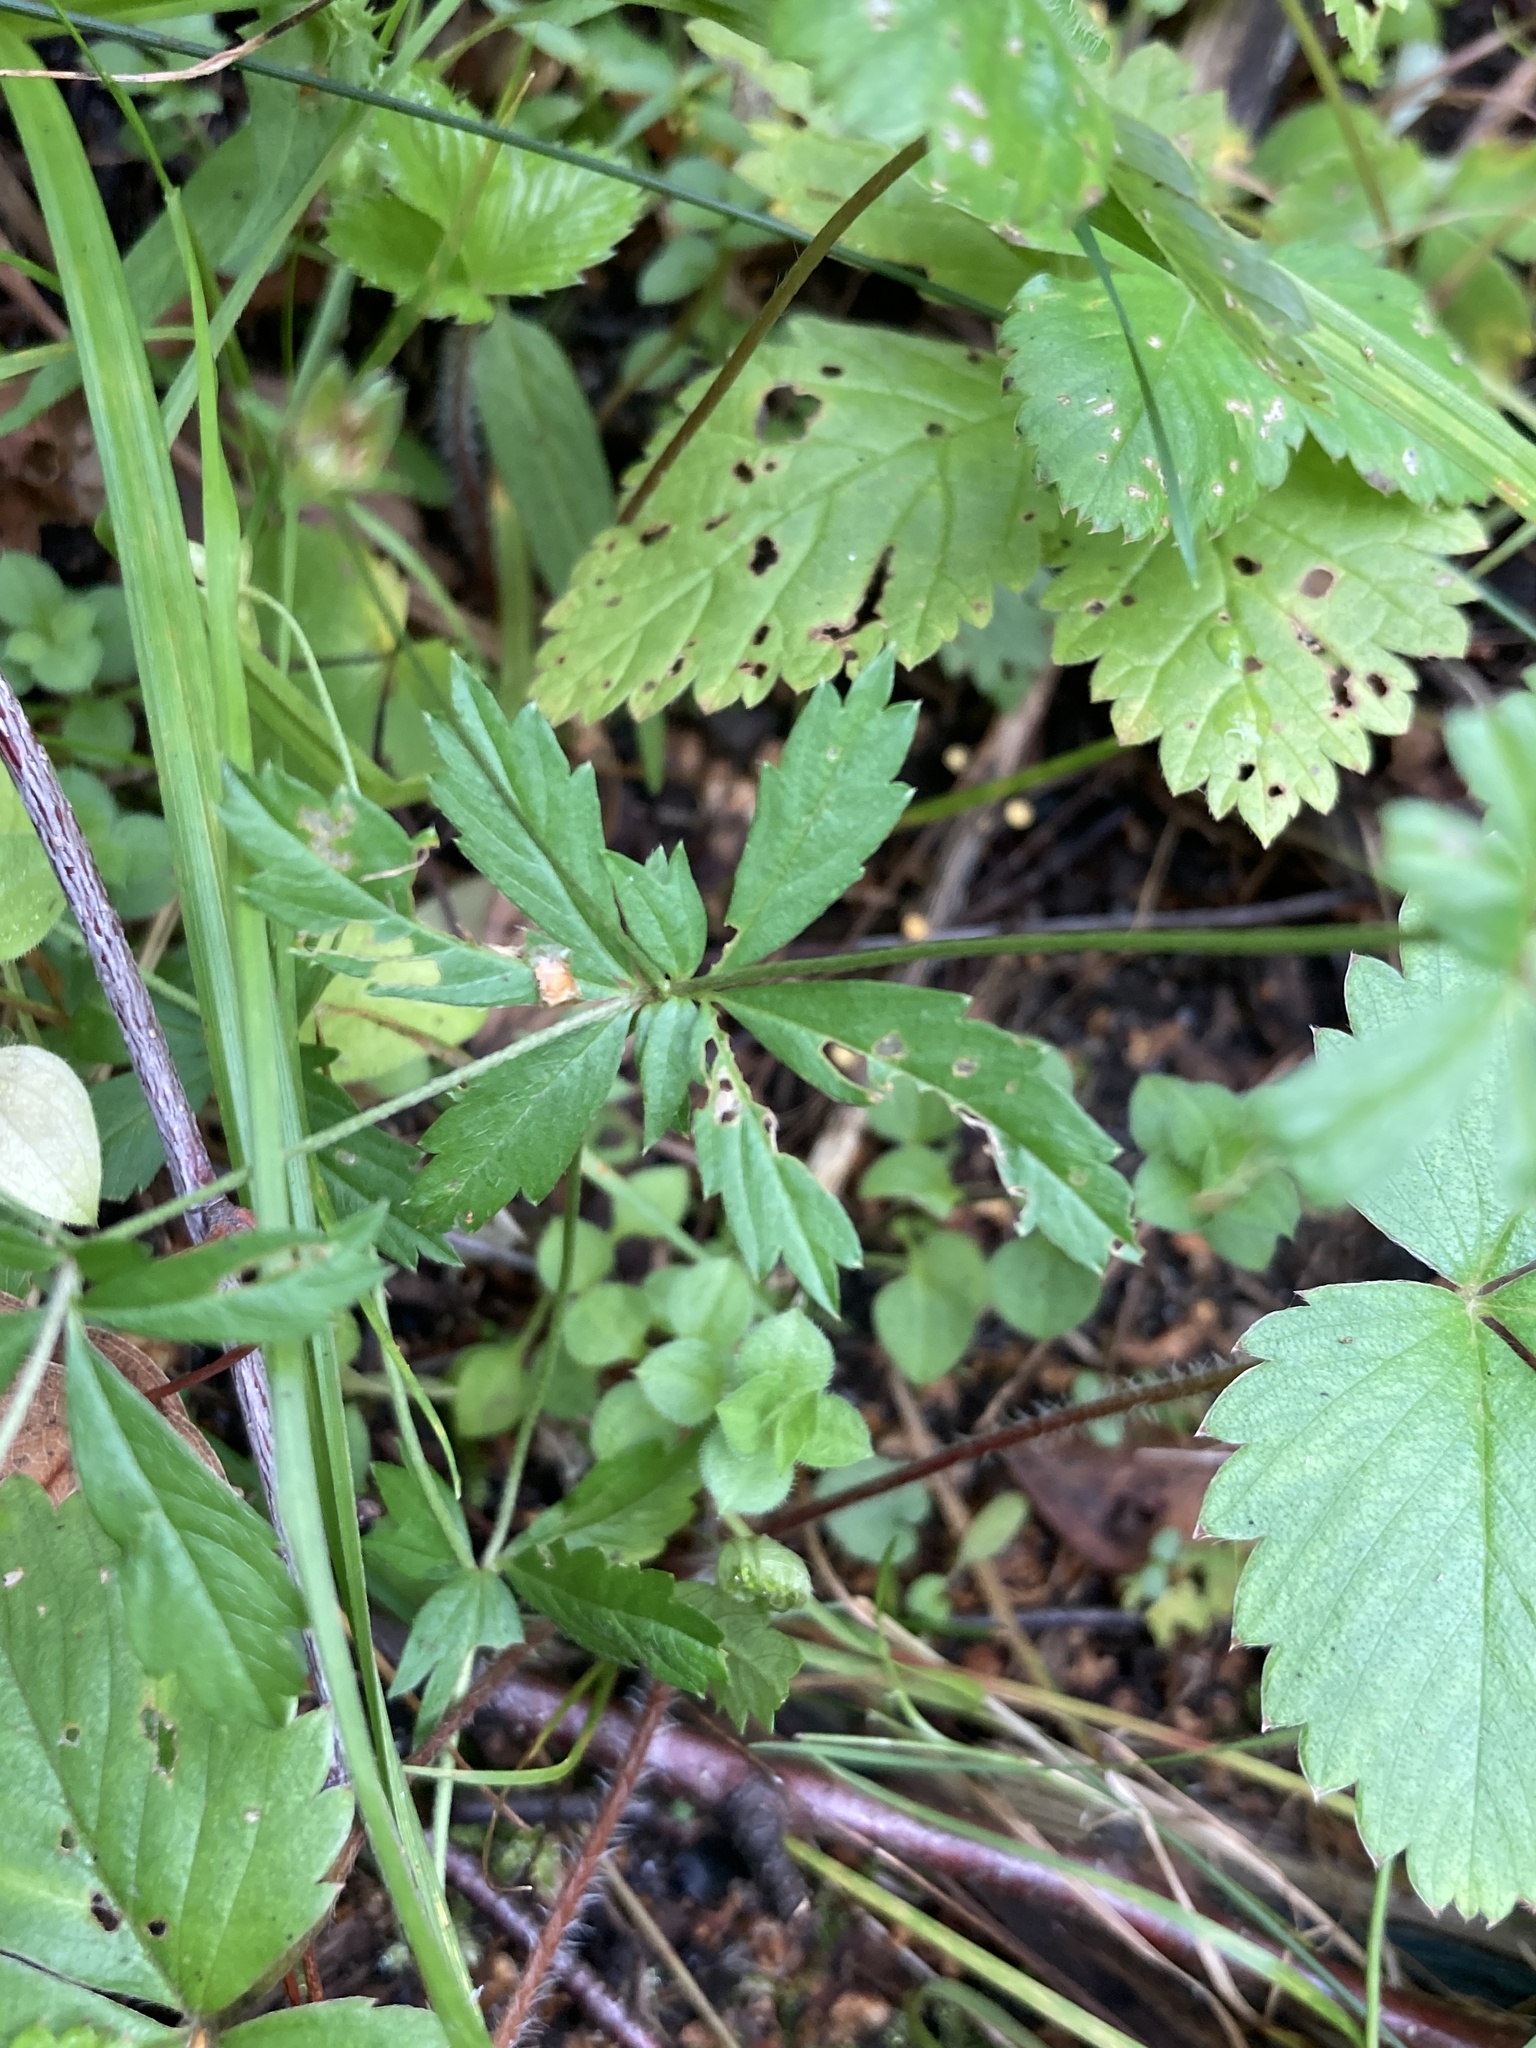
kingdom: Plantae
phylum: Tracheophyta
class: Magnoliopsida
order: Rosales
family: Rosaceae
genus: Potentilla
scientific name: Potentilla erecta
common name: Tormentil
